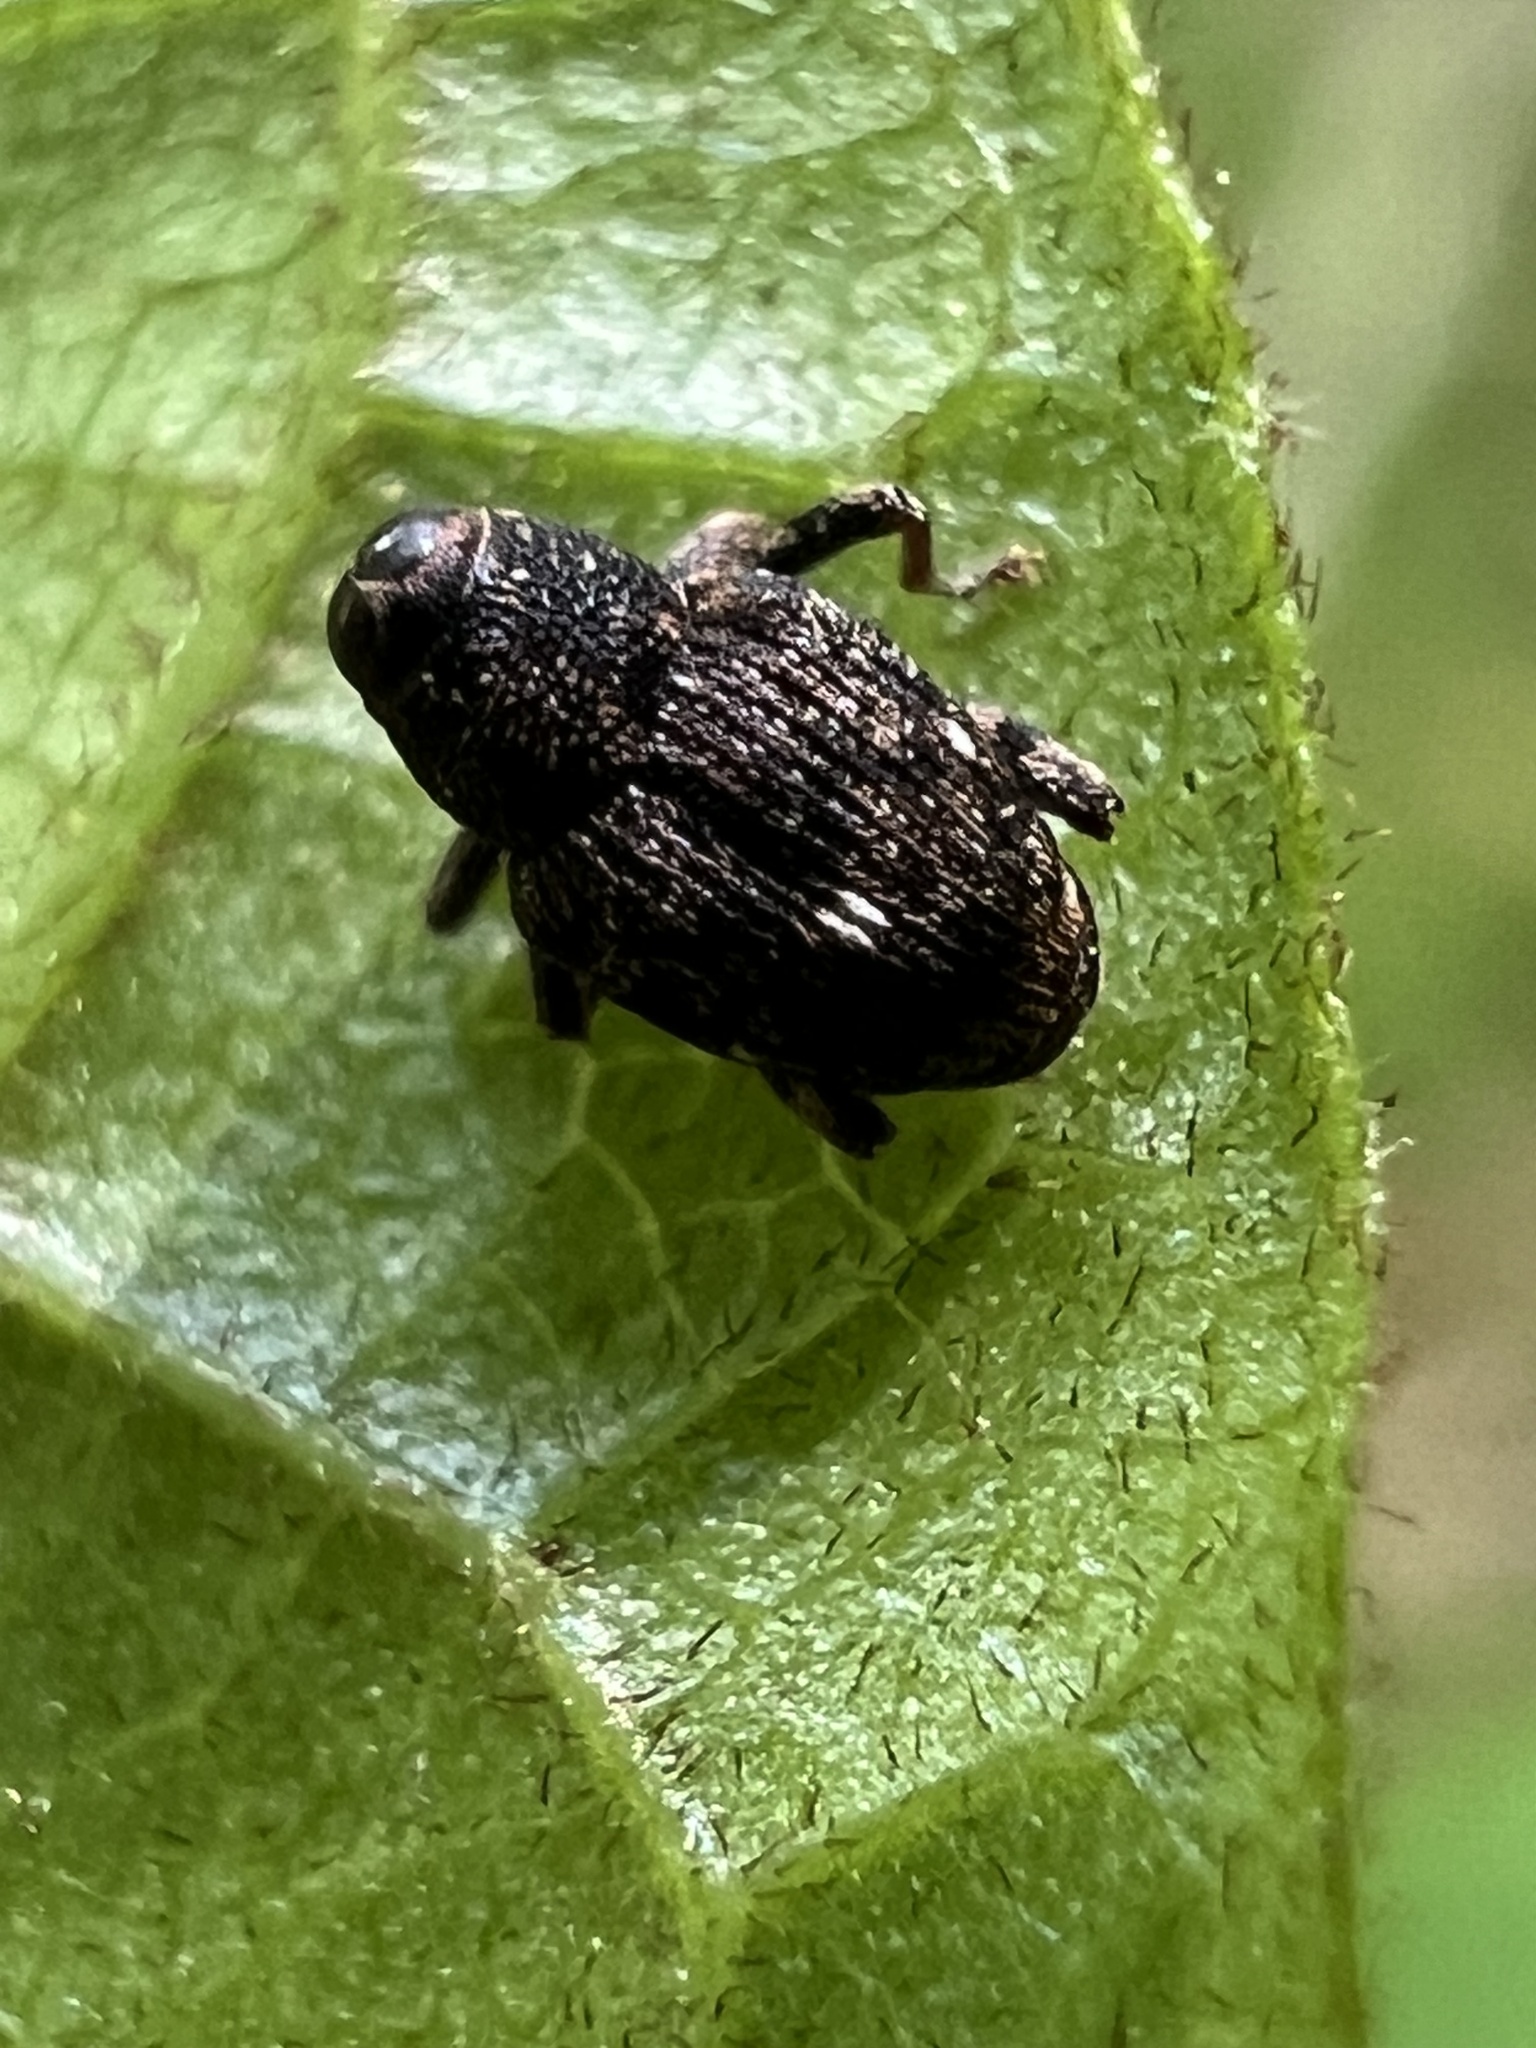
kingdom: Animalia
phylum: Arthropoda
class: Insecta
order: Coleoptera
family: Curculionidae
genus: Lechriops
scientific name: Lechriops oculatus
